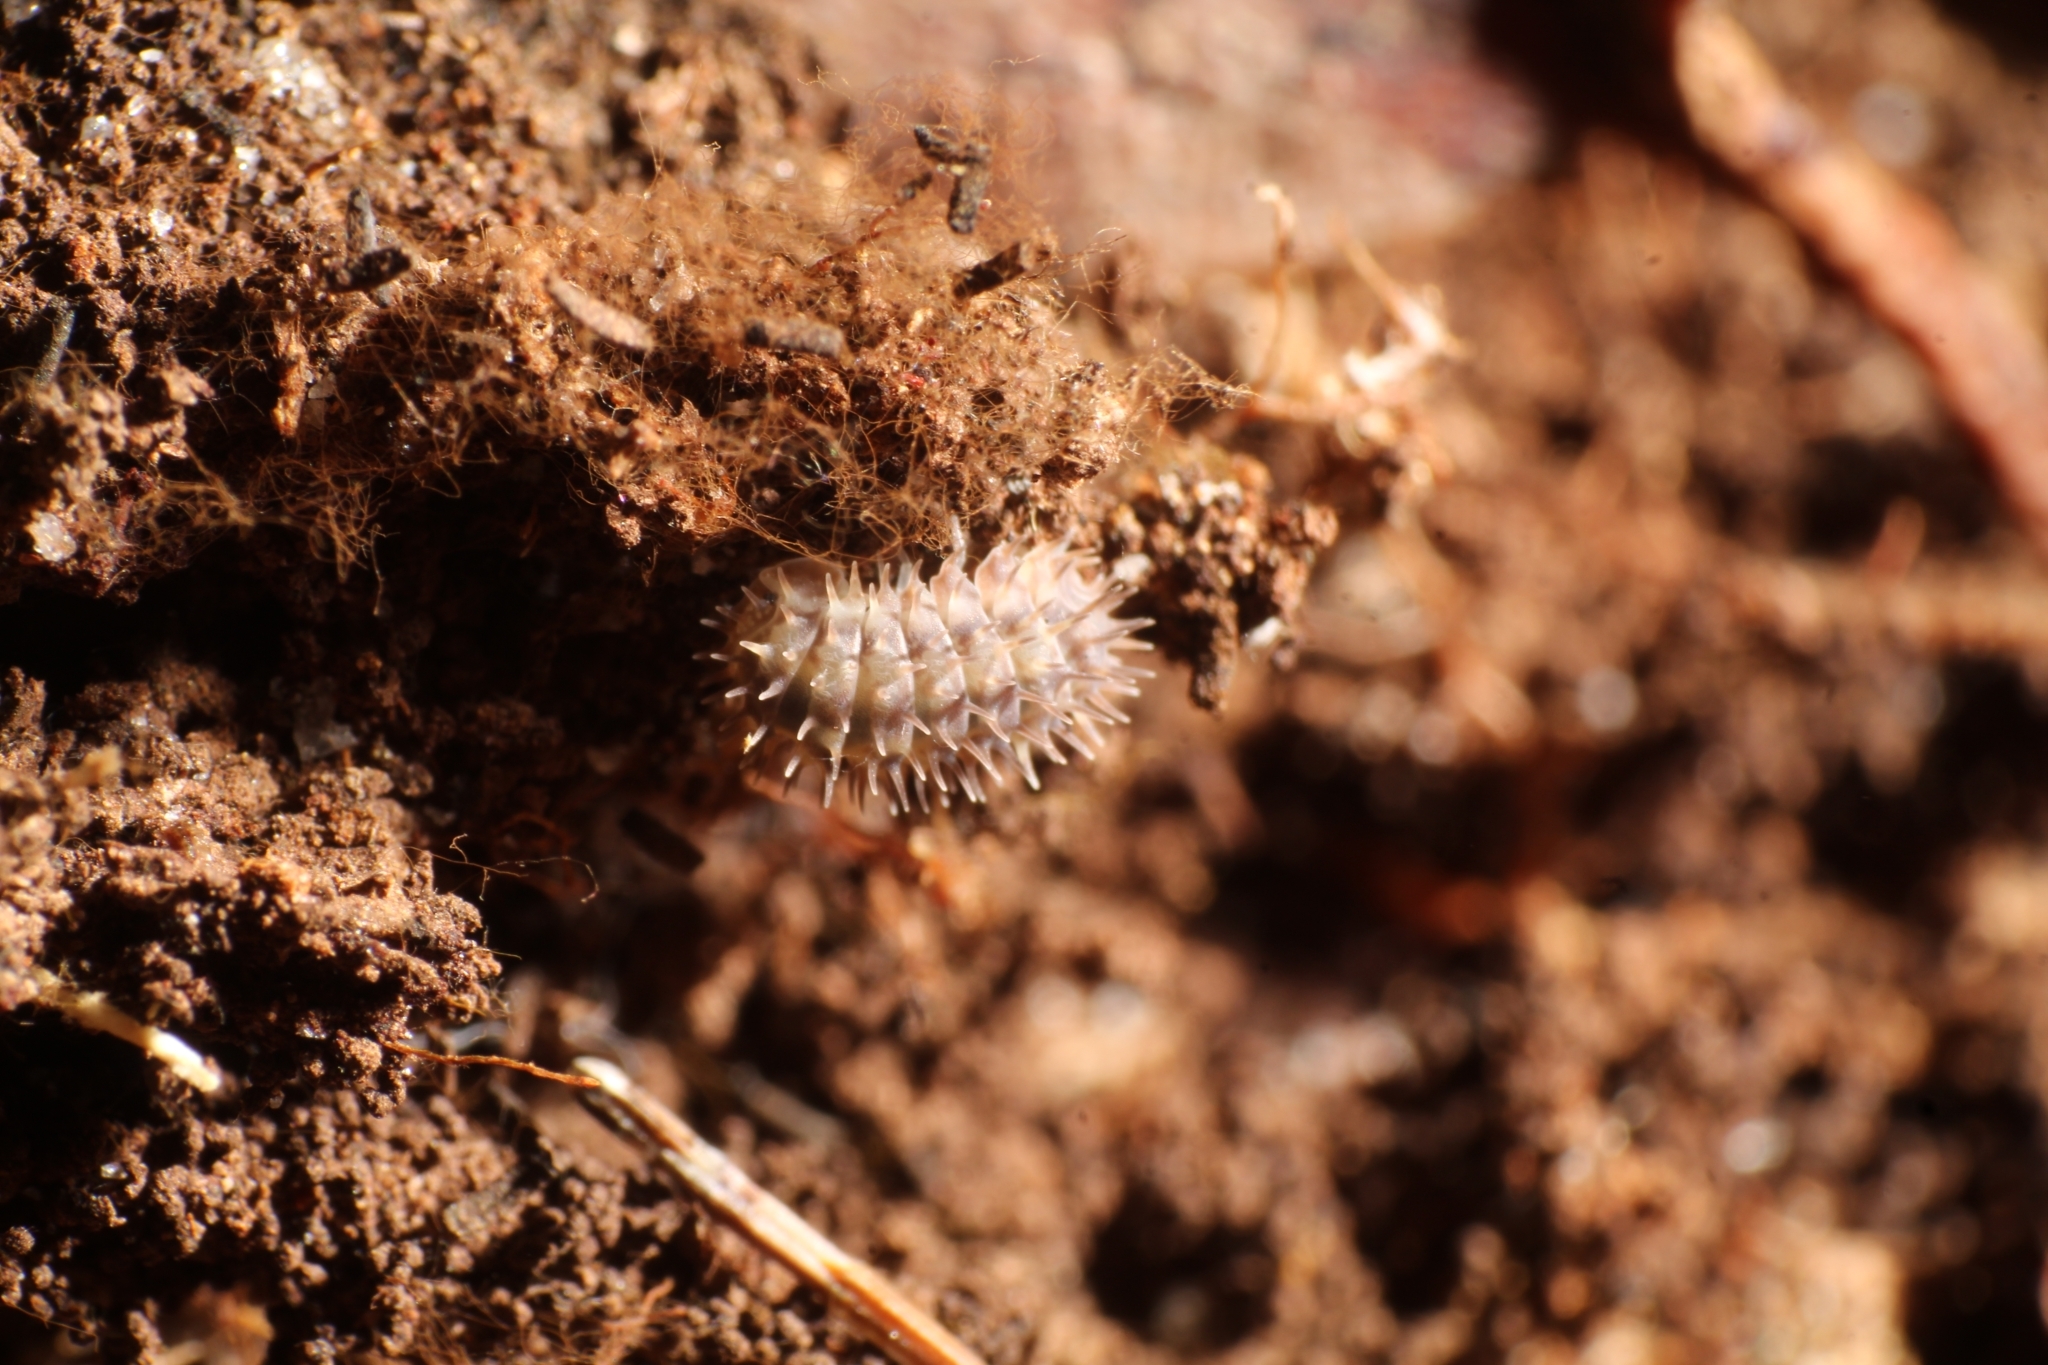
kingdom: Animalia
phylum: Arthropoda
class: Malacostraca
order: Isopoda
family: Armadillidae
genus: Pseudolaureola
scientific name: Pseudolaureola wilsmorei
